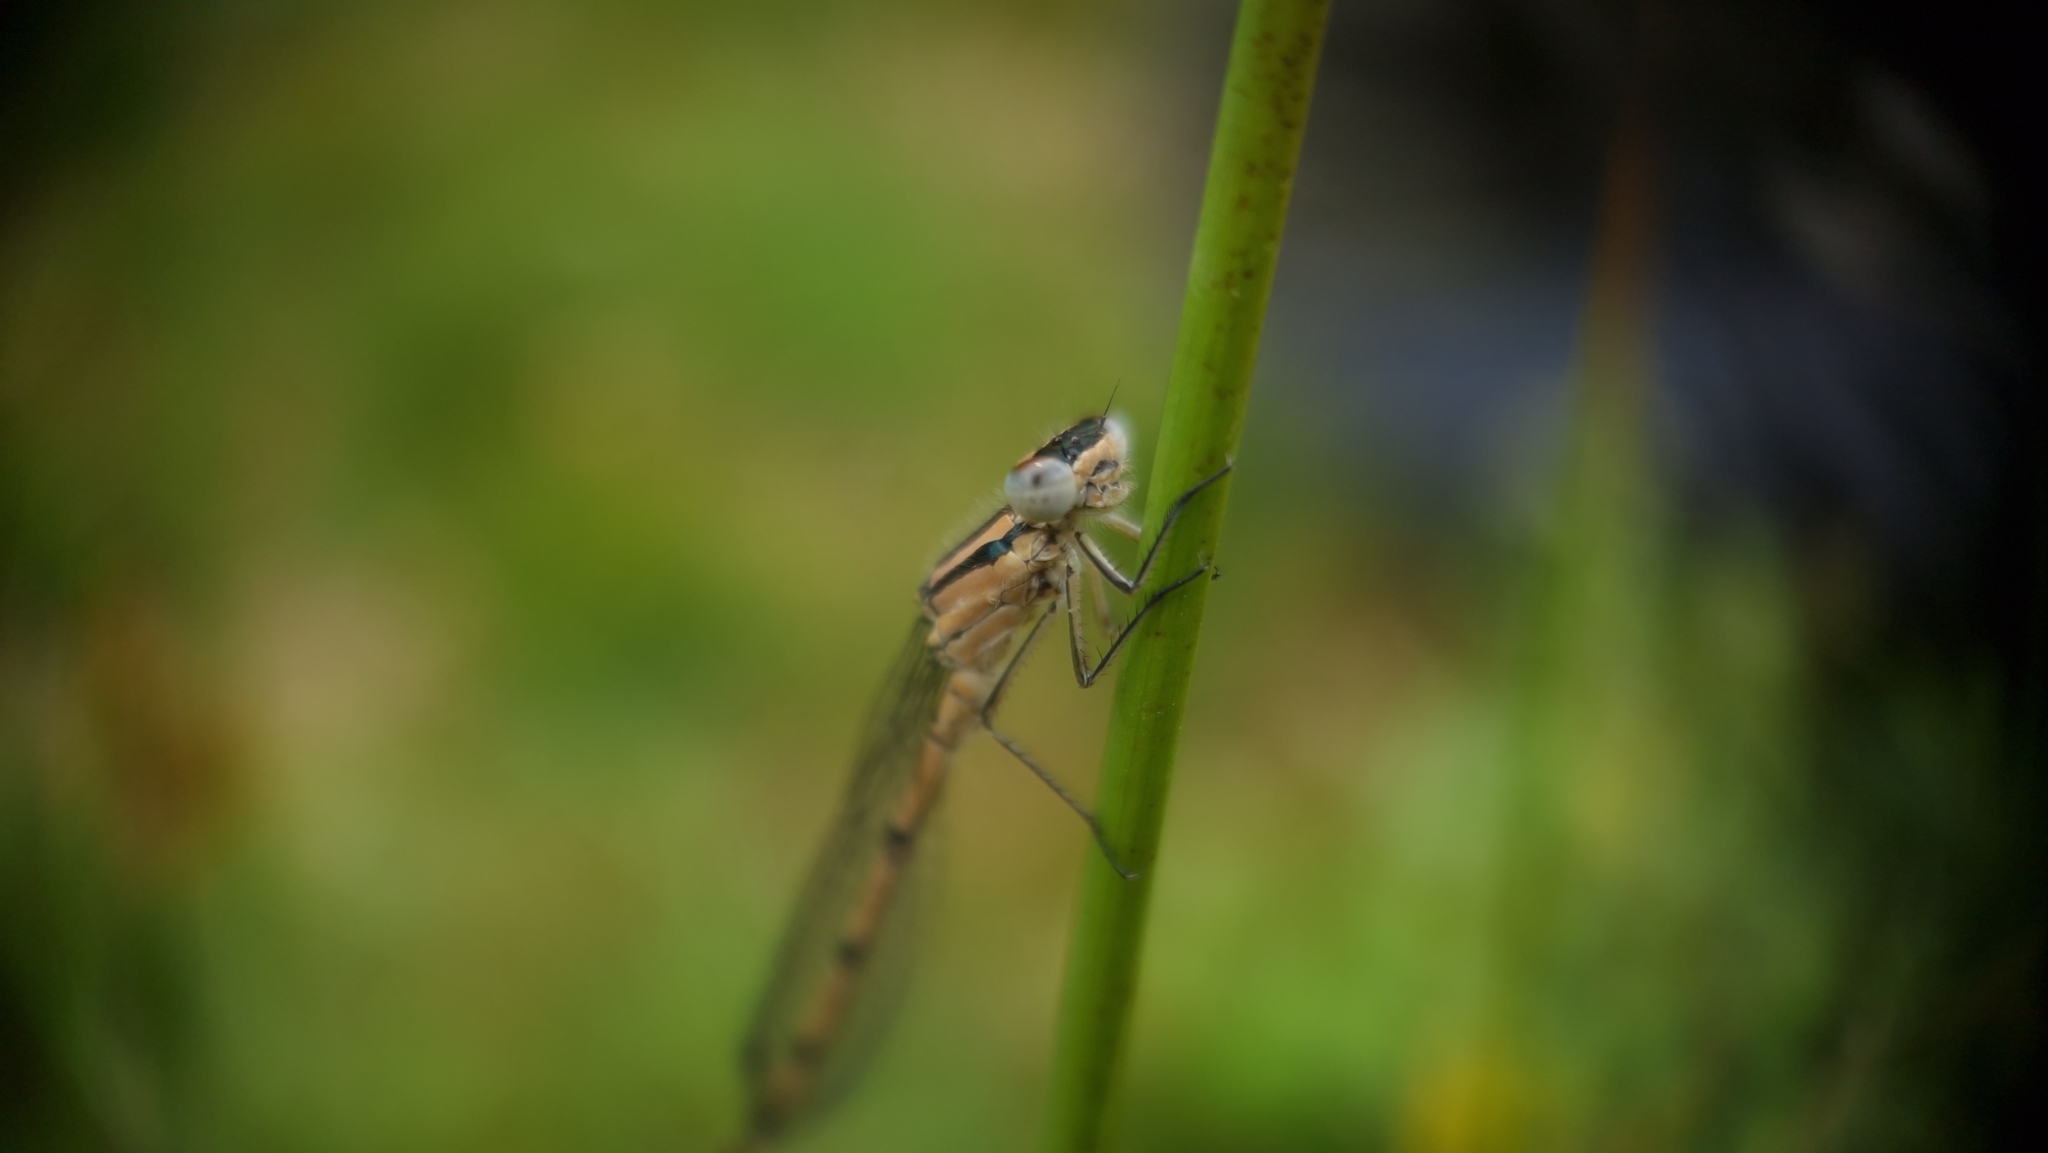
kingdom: Animalia
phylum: Arthropoda
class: Insecta
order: Odonata
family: Coenagrionidae
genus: Enallagma
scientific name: Enallagma cyathigerum
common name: Common blue damselfly
